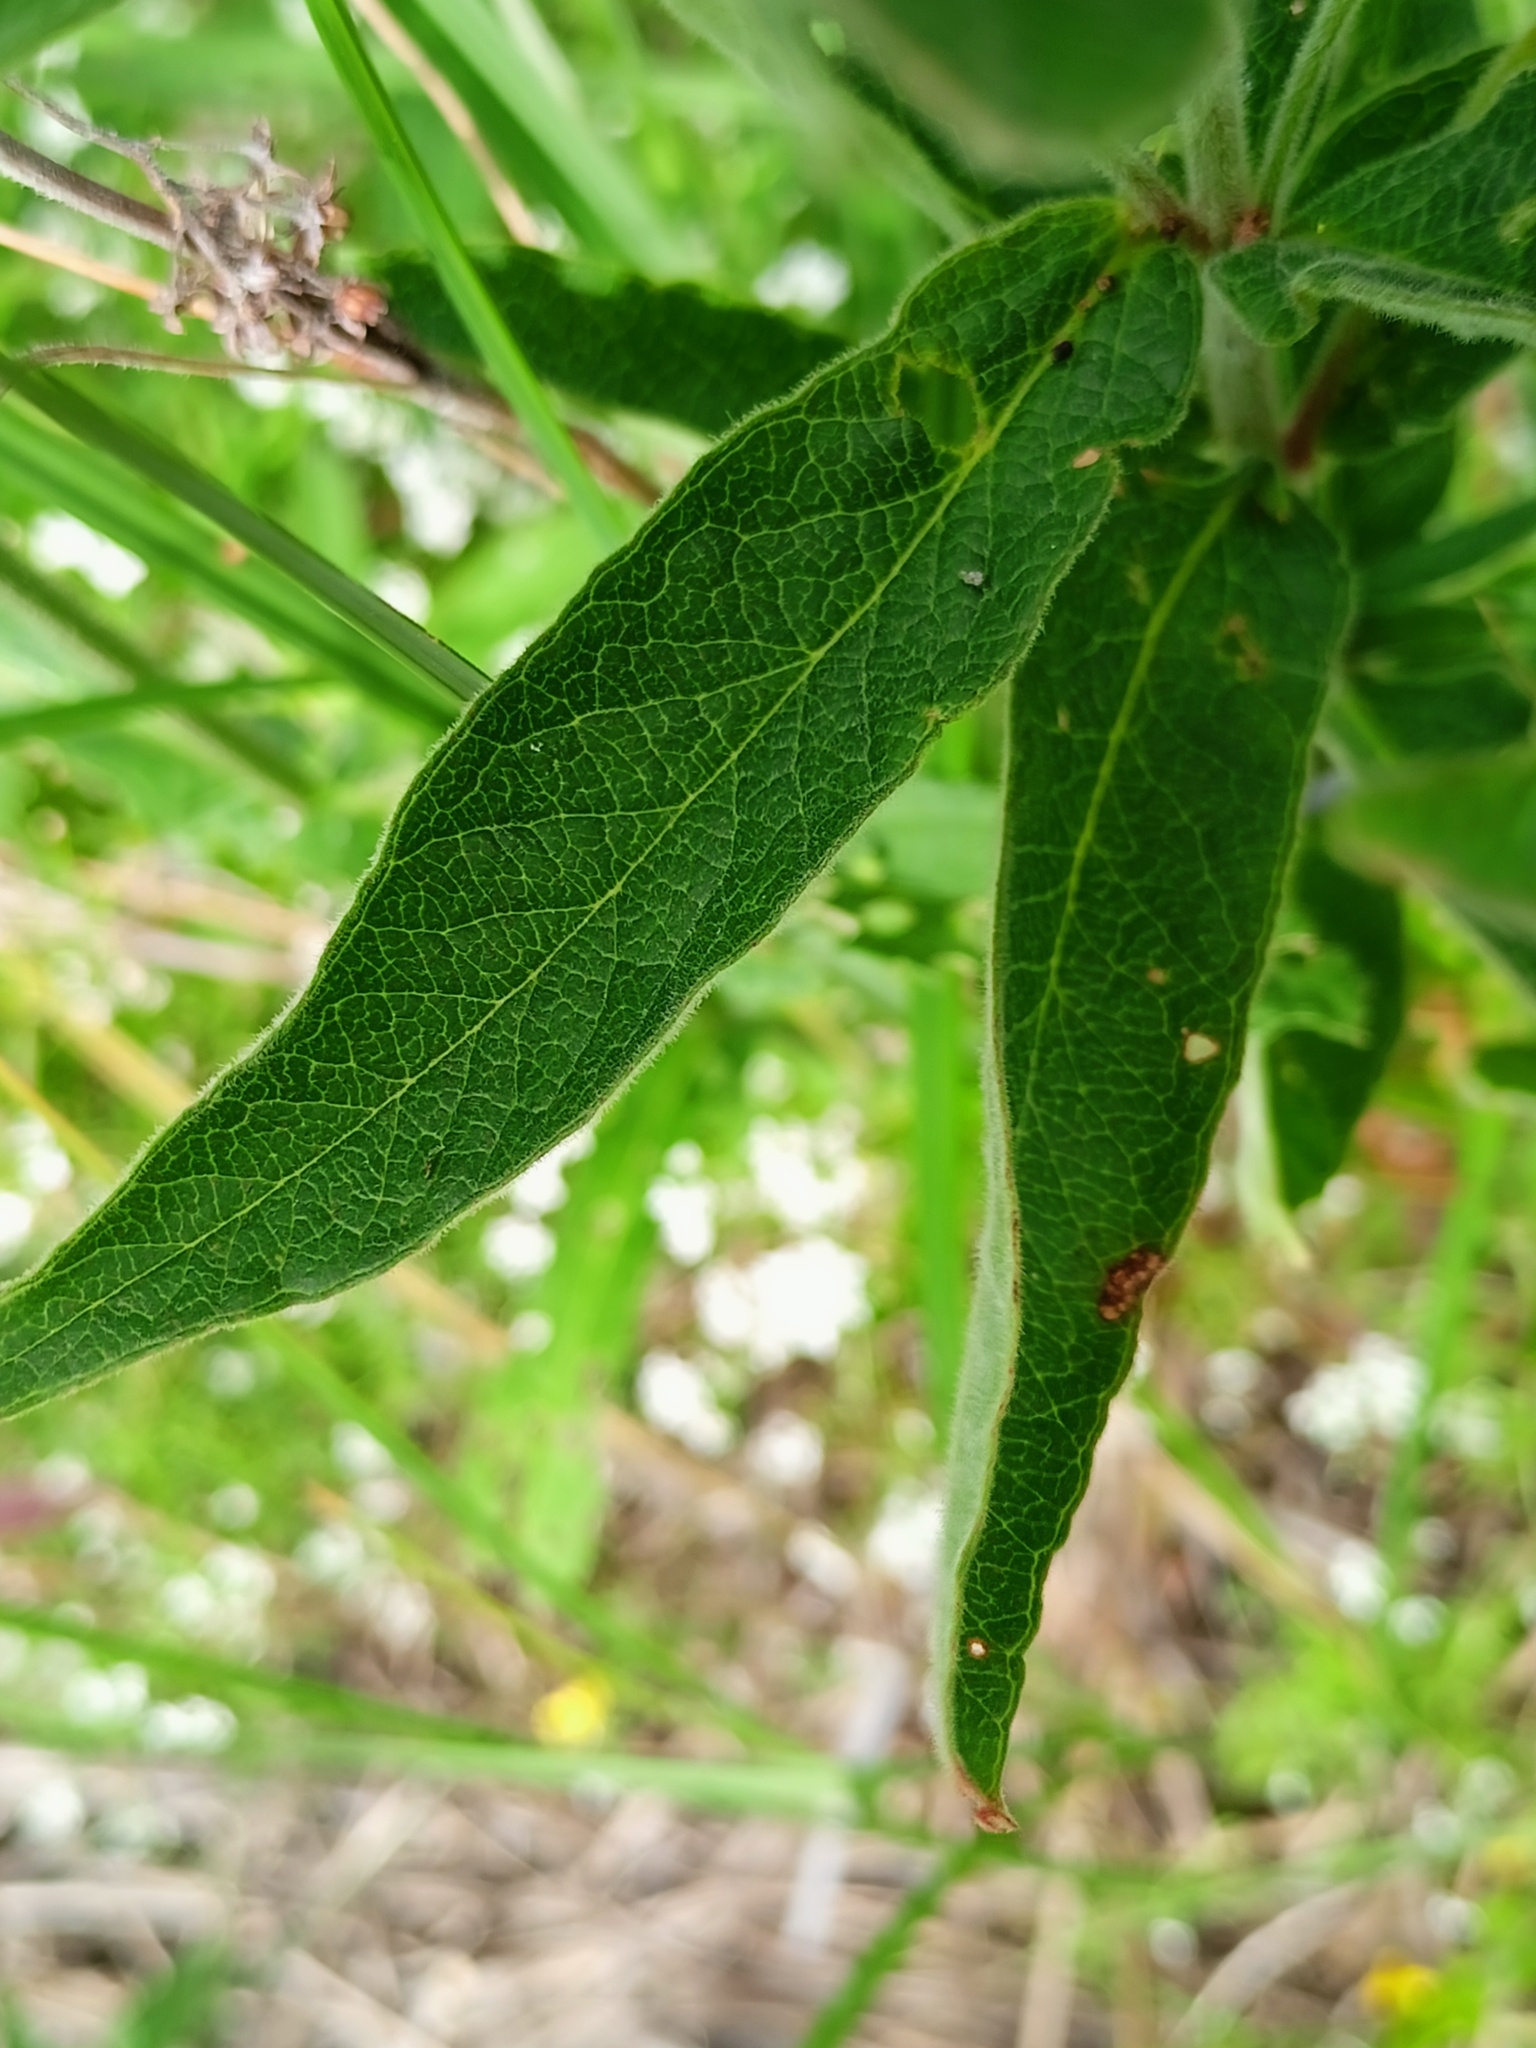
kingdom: Plantae
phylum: Tracheophyta
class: Magnoliopsida
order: Ericales
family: Primulaceae
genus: Lysimachia
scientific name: Lysimachia vulgaris
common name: Yellow loosestrife
